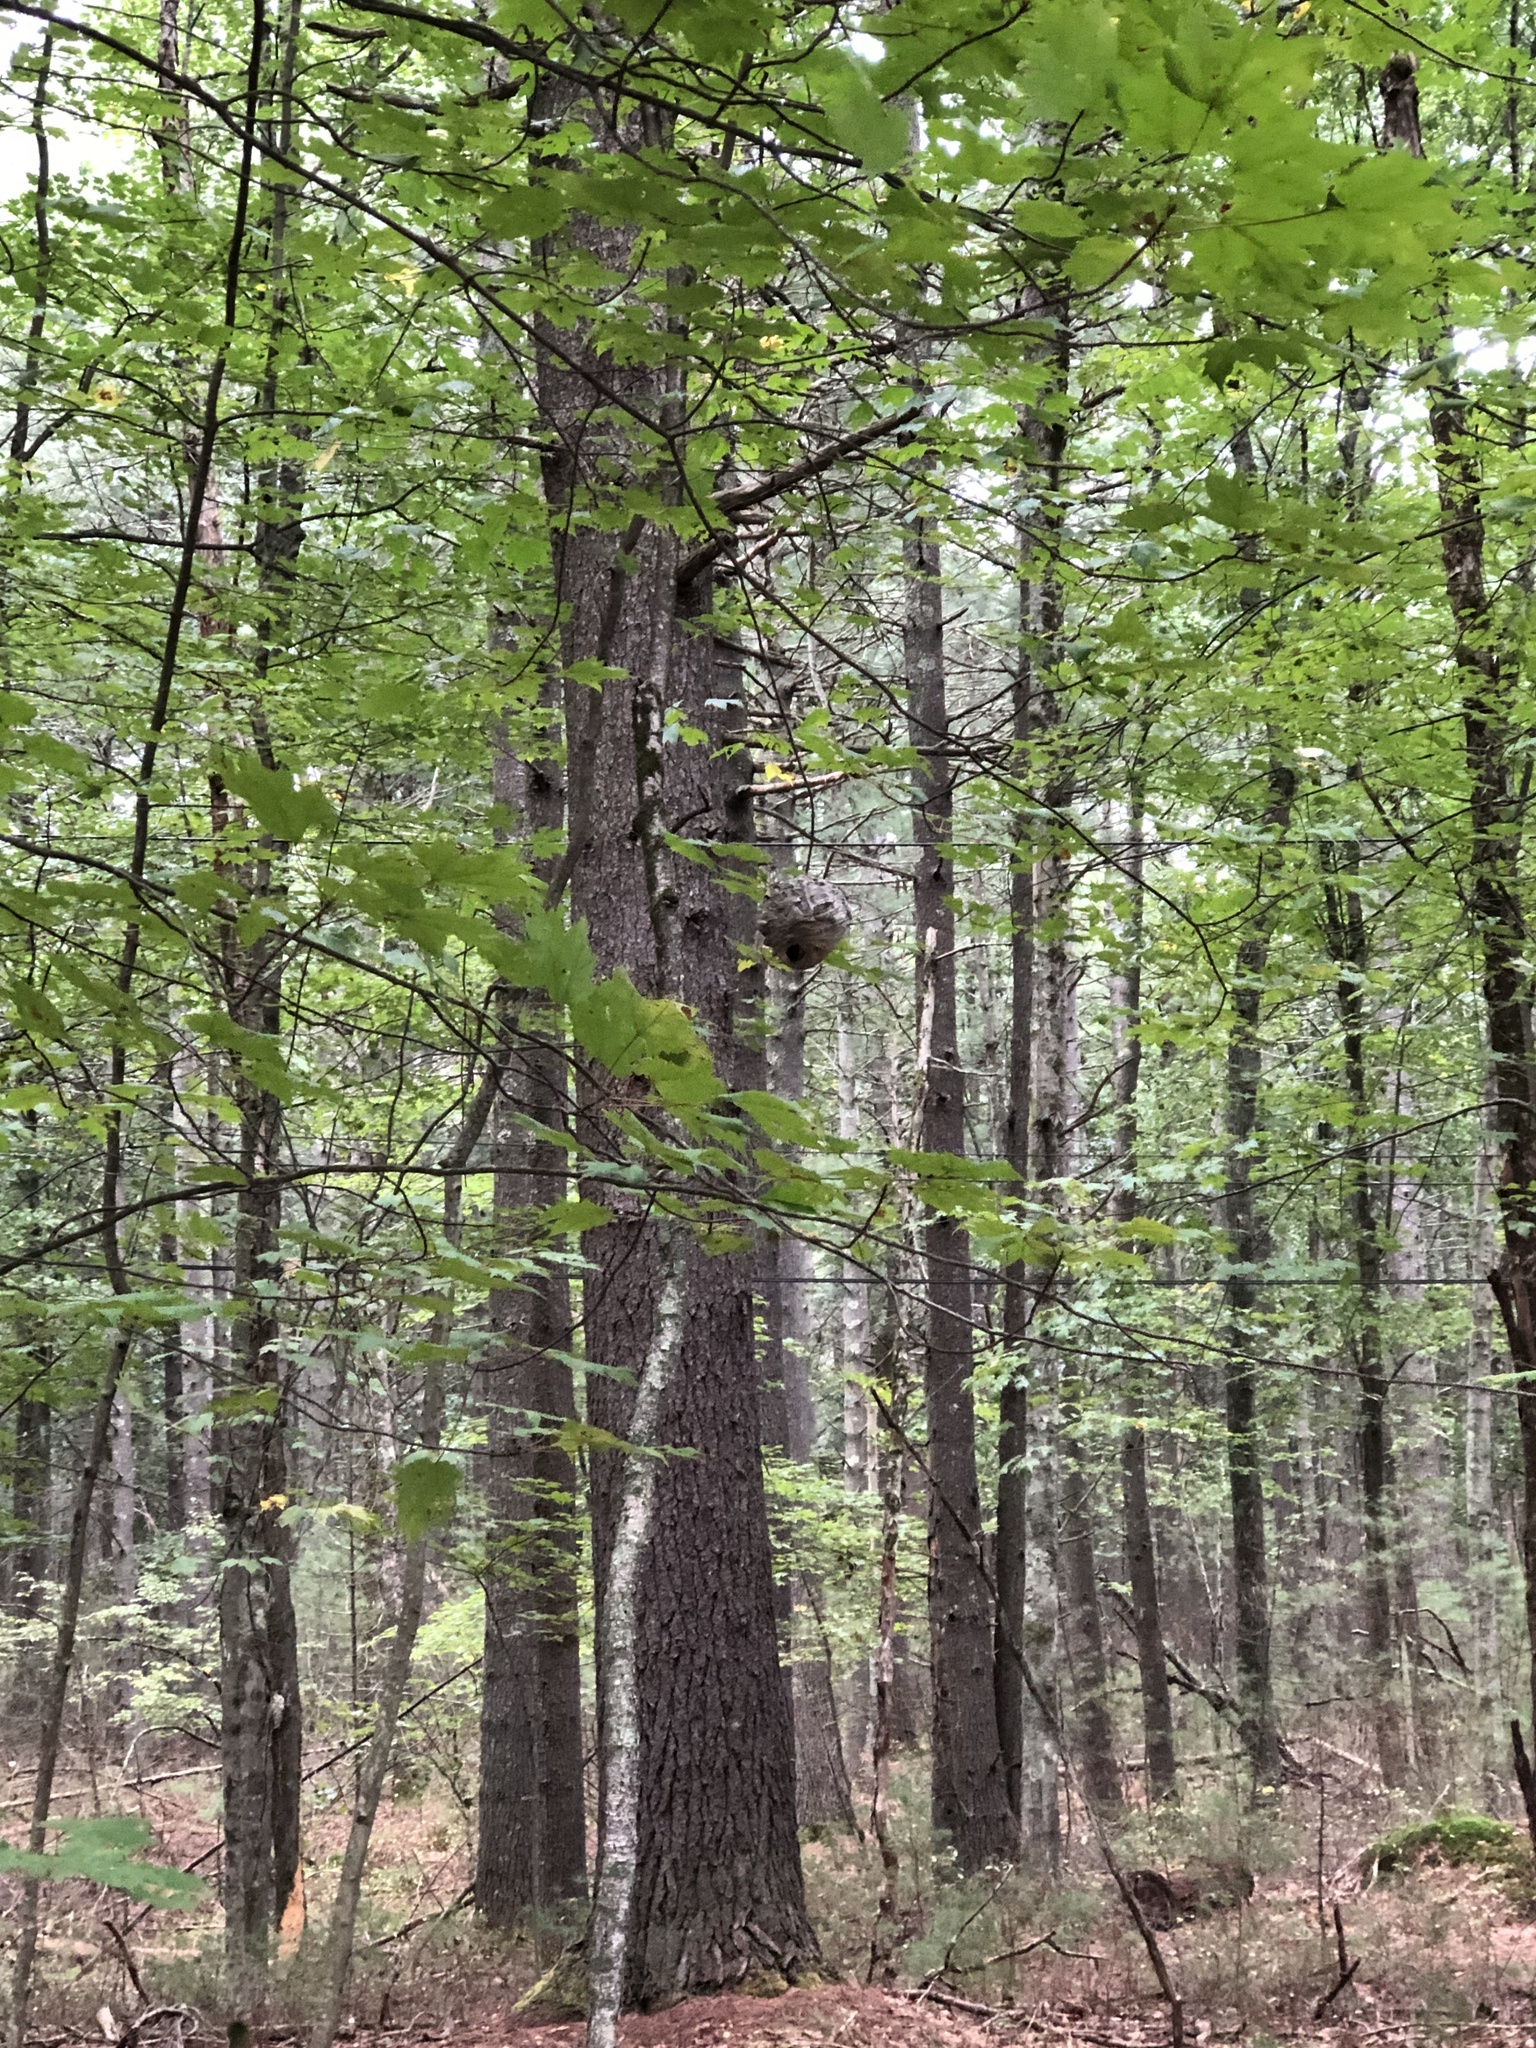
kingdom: Animalia
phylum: Arthropoda
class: Insecta
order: Hymenoptera
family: Vespidae
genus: Dolichovespula
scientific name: Dolichovespula maculata
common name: Bald-faced hornet
